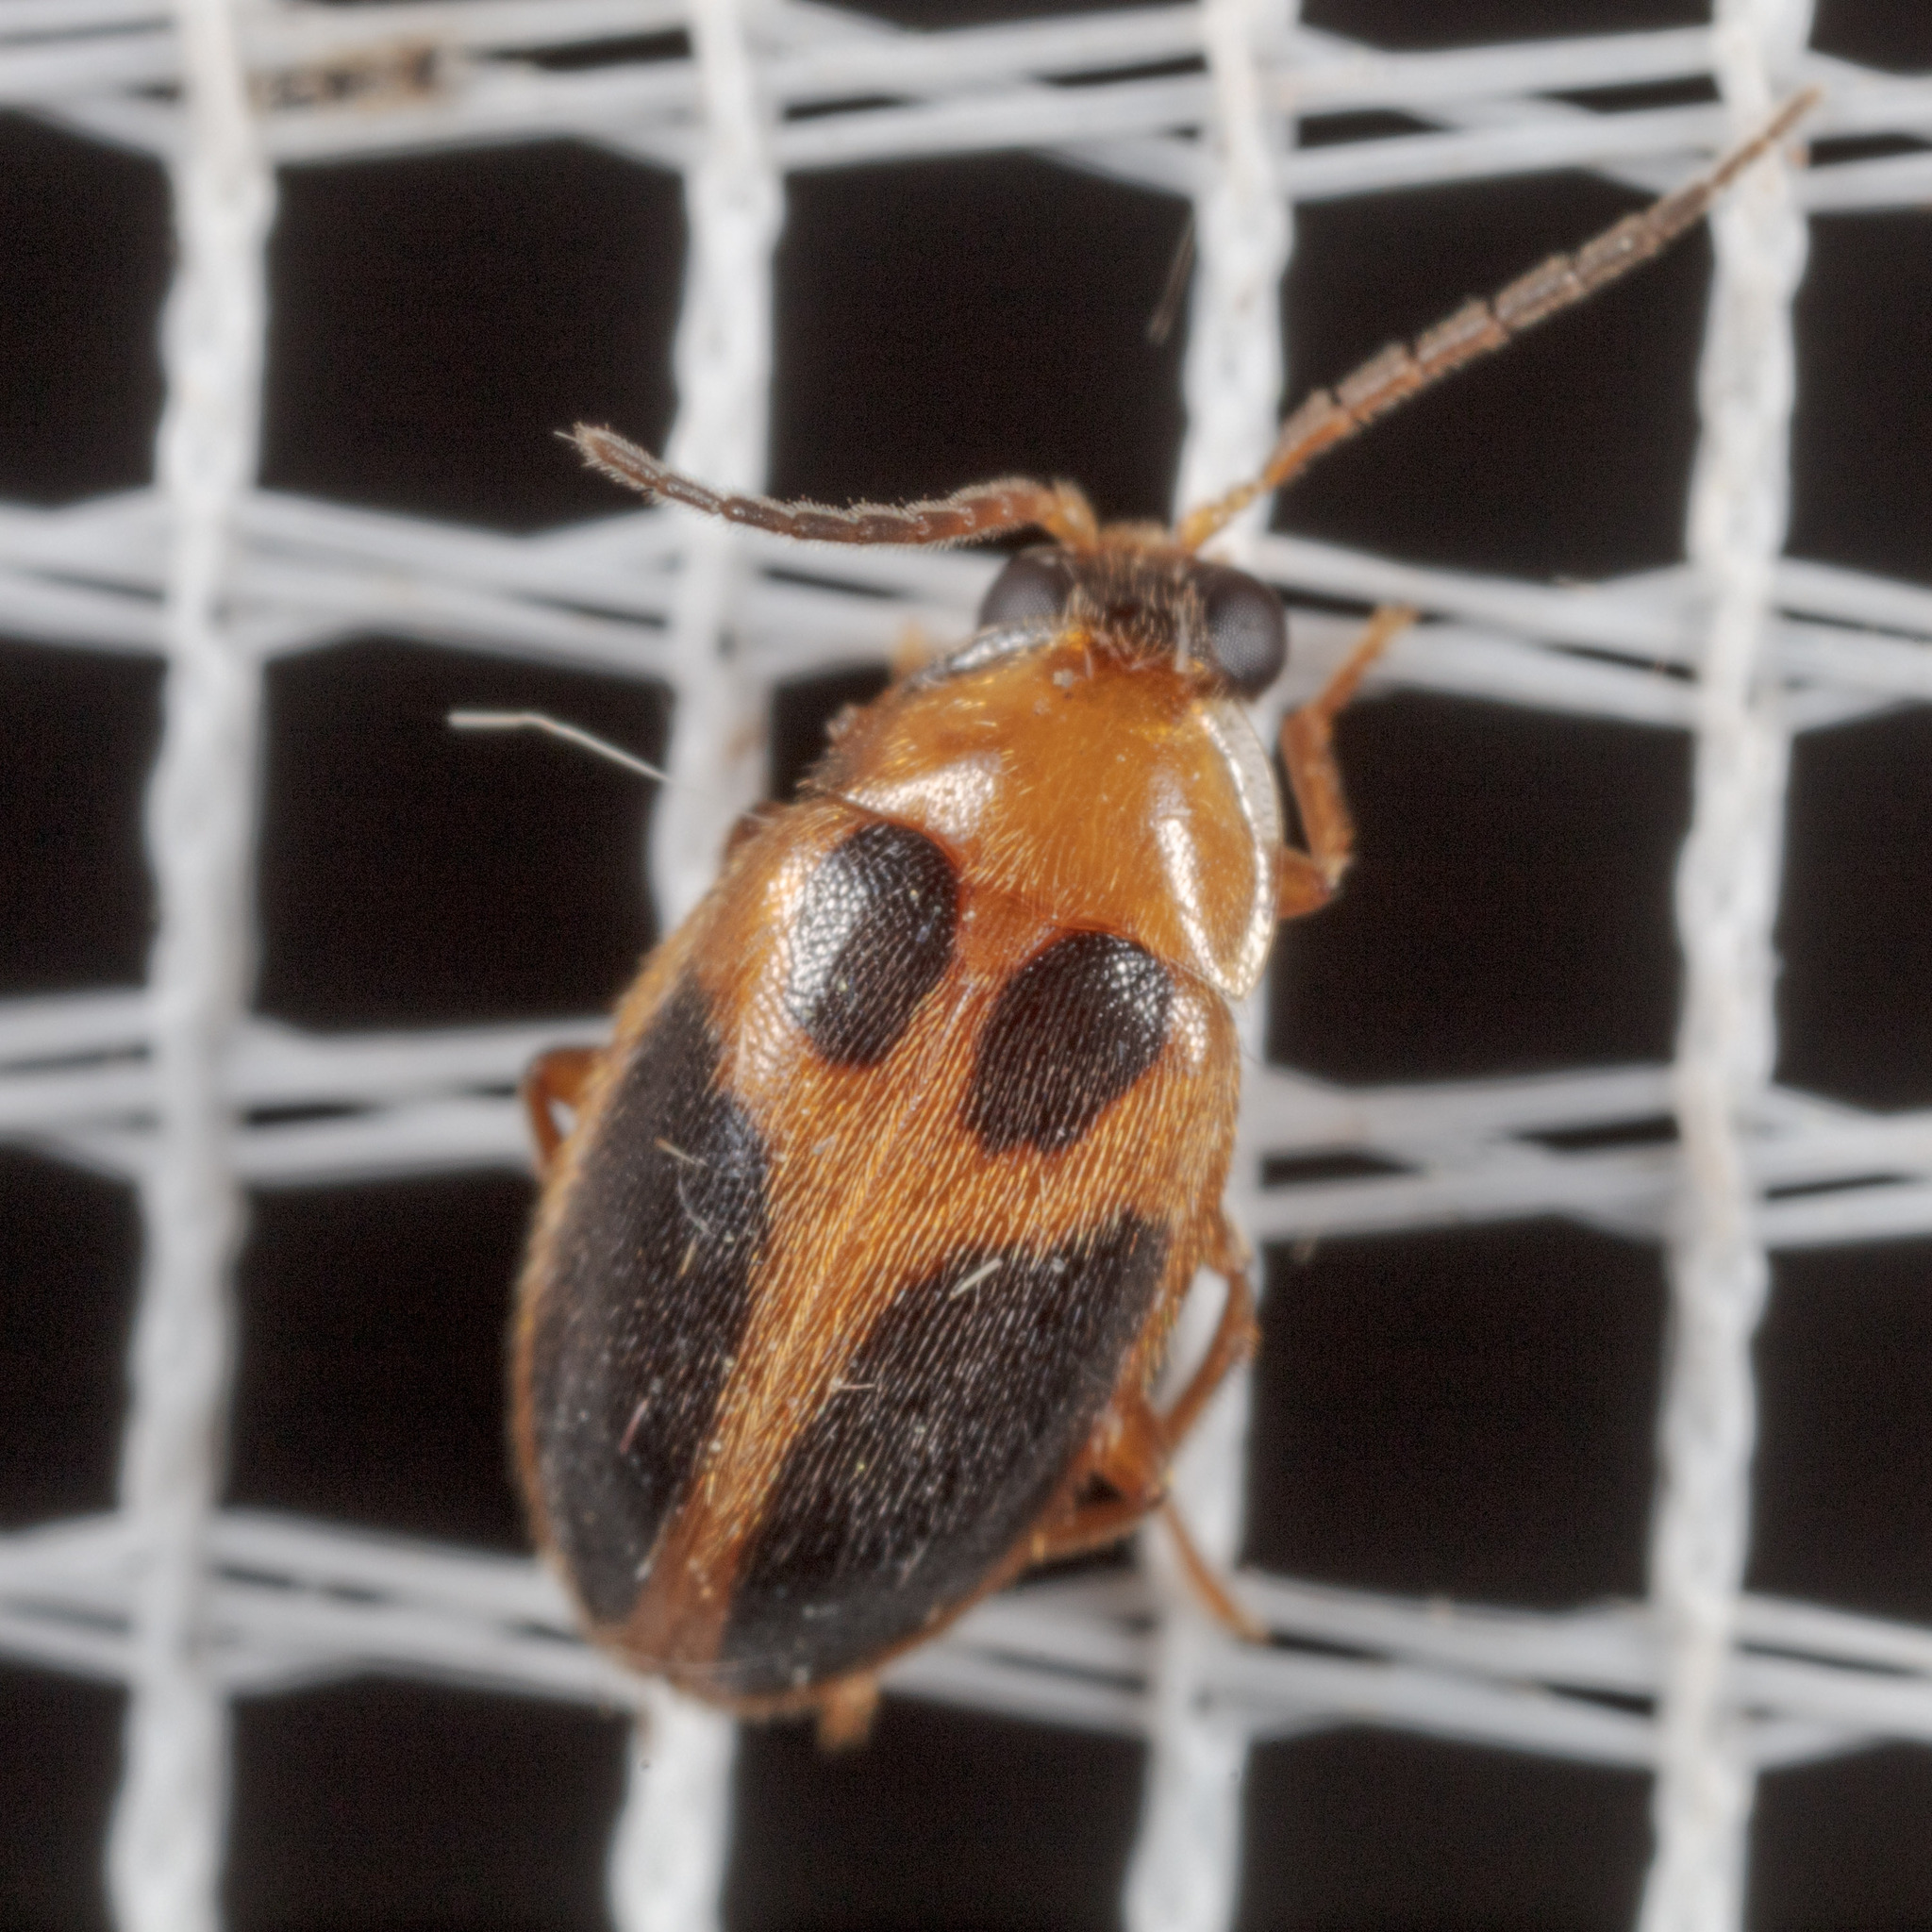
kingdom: Animalia
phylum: Arthropoda
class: Insecta
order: Coleoptera
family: Scirtidae
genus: Sacodes
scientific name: Sacodes pulchella
